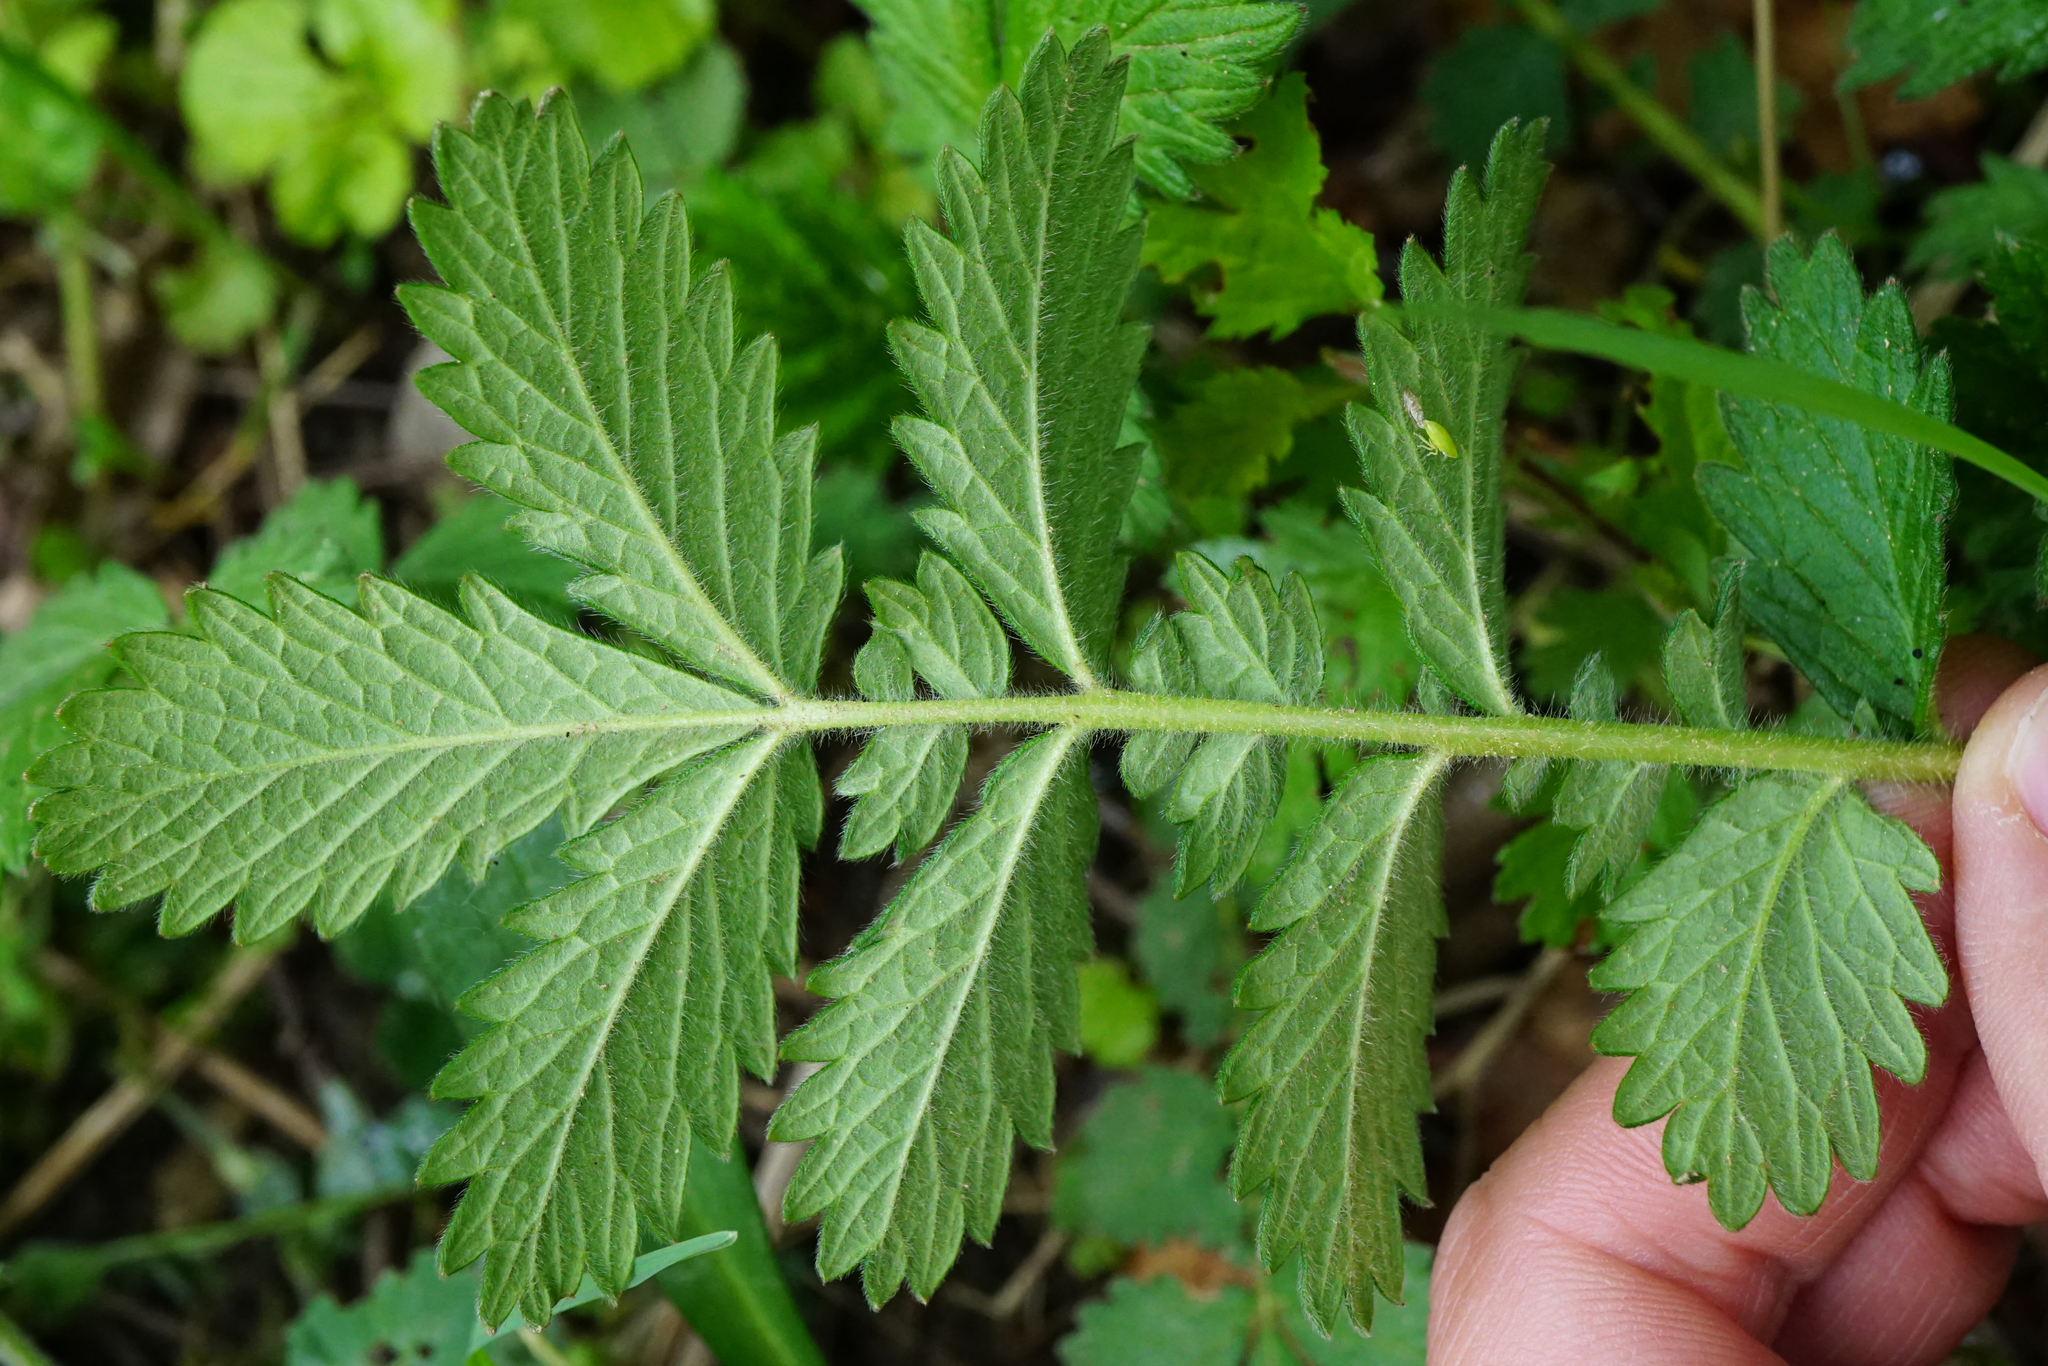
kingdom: Plantae
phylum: Tracheophyta
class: Magnoliopsida
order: Rosales
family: Rosaceae
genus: Agrimonia
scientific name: Agrimonia eupatoria
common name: Agrimony
